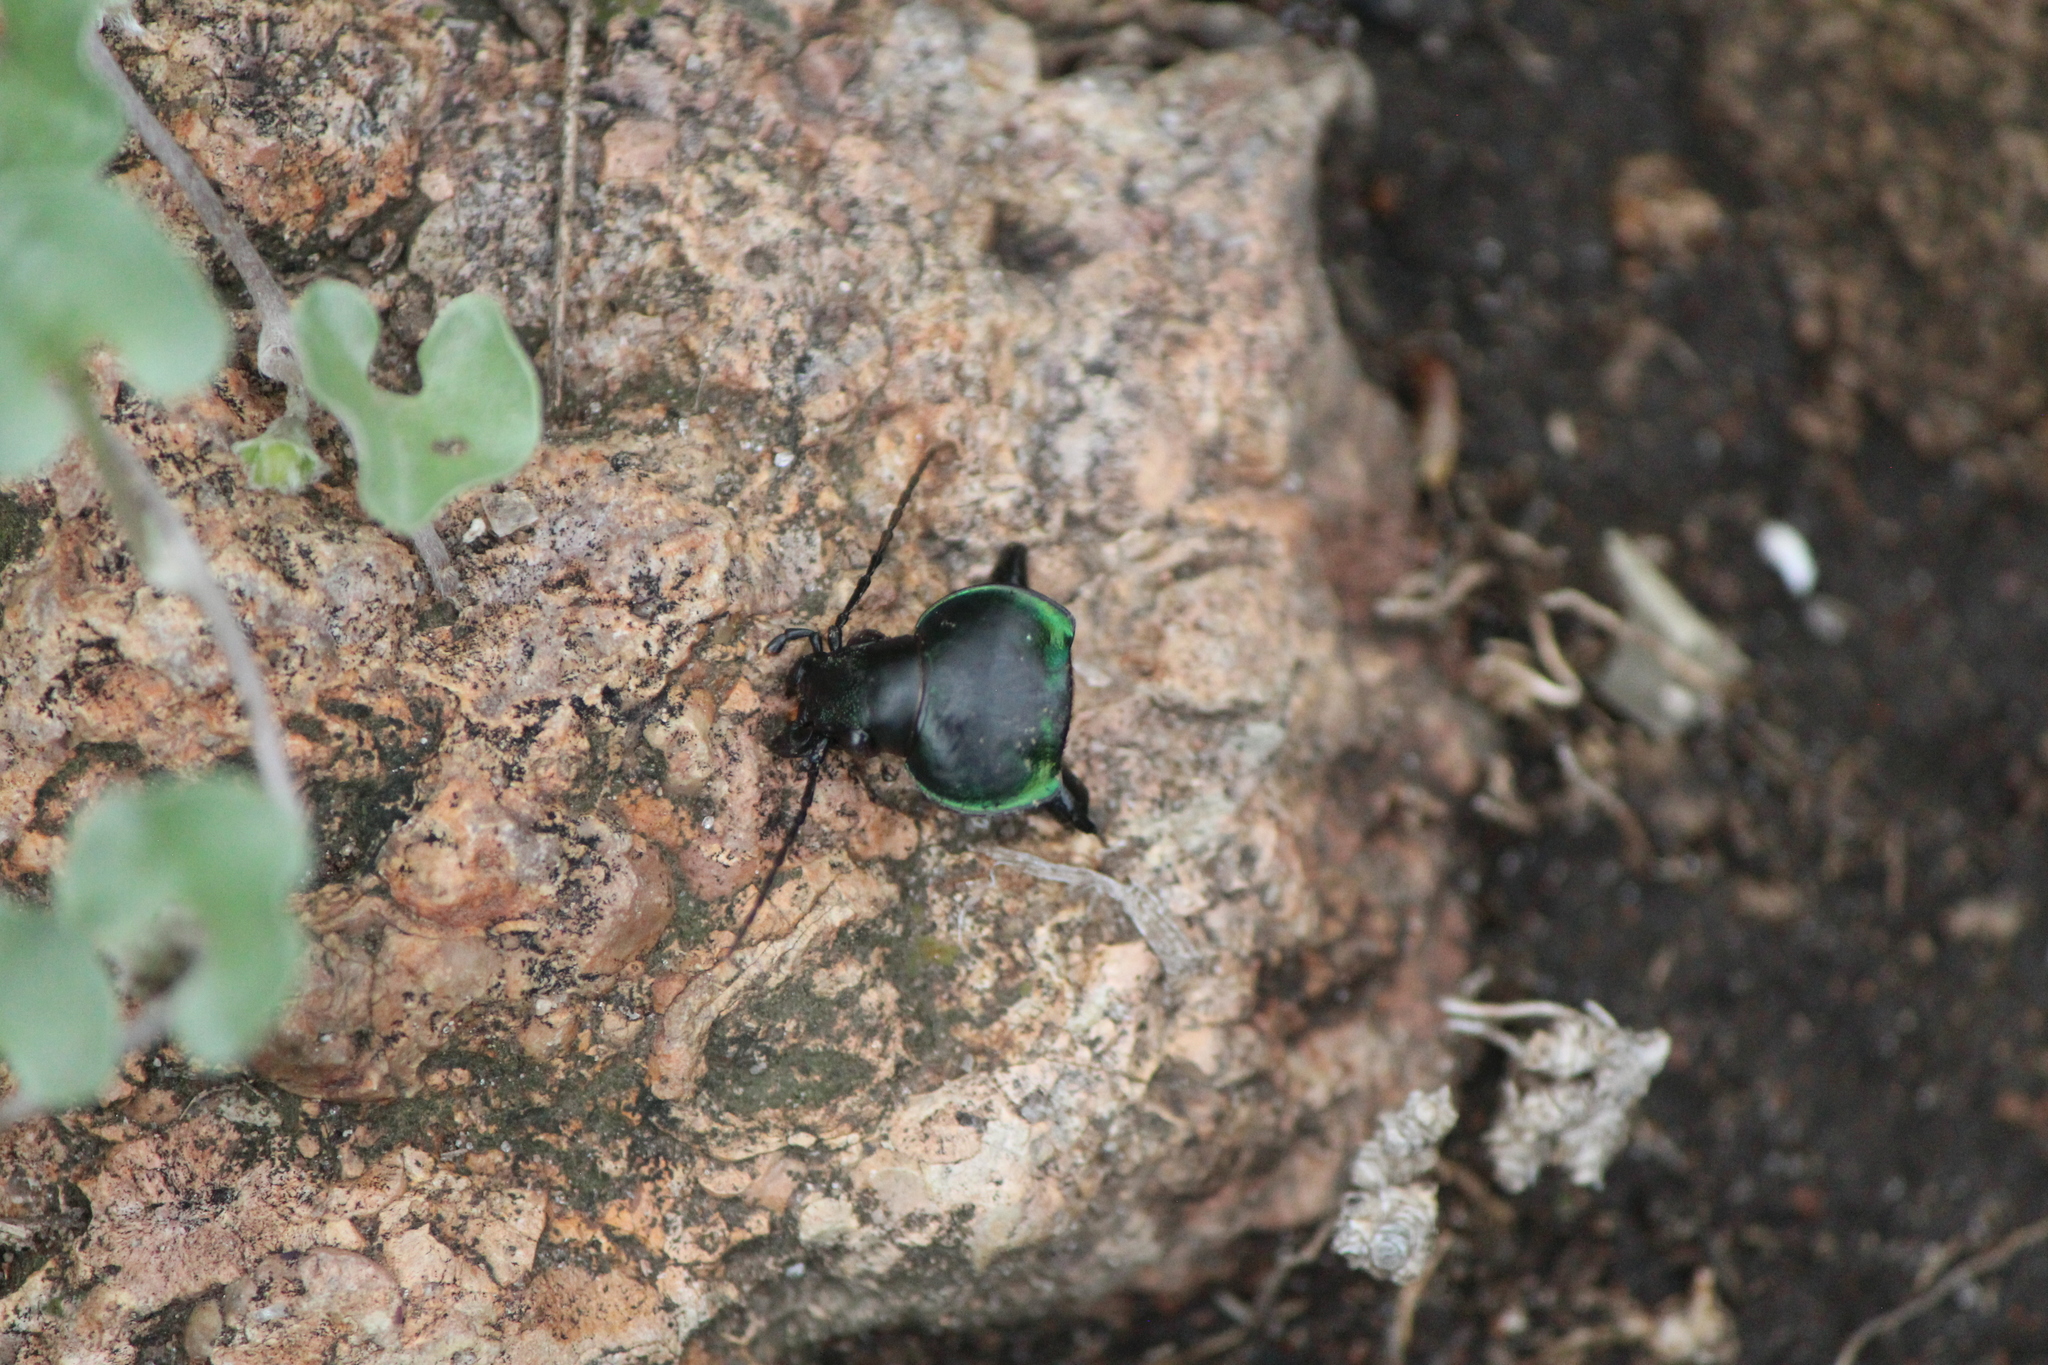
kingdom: Animalia
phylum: Arthropoda
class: Insecta
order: Coleoptera
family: Carabidae
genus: Calosoma
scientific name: Calosoma atrovirens
